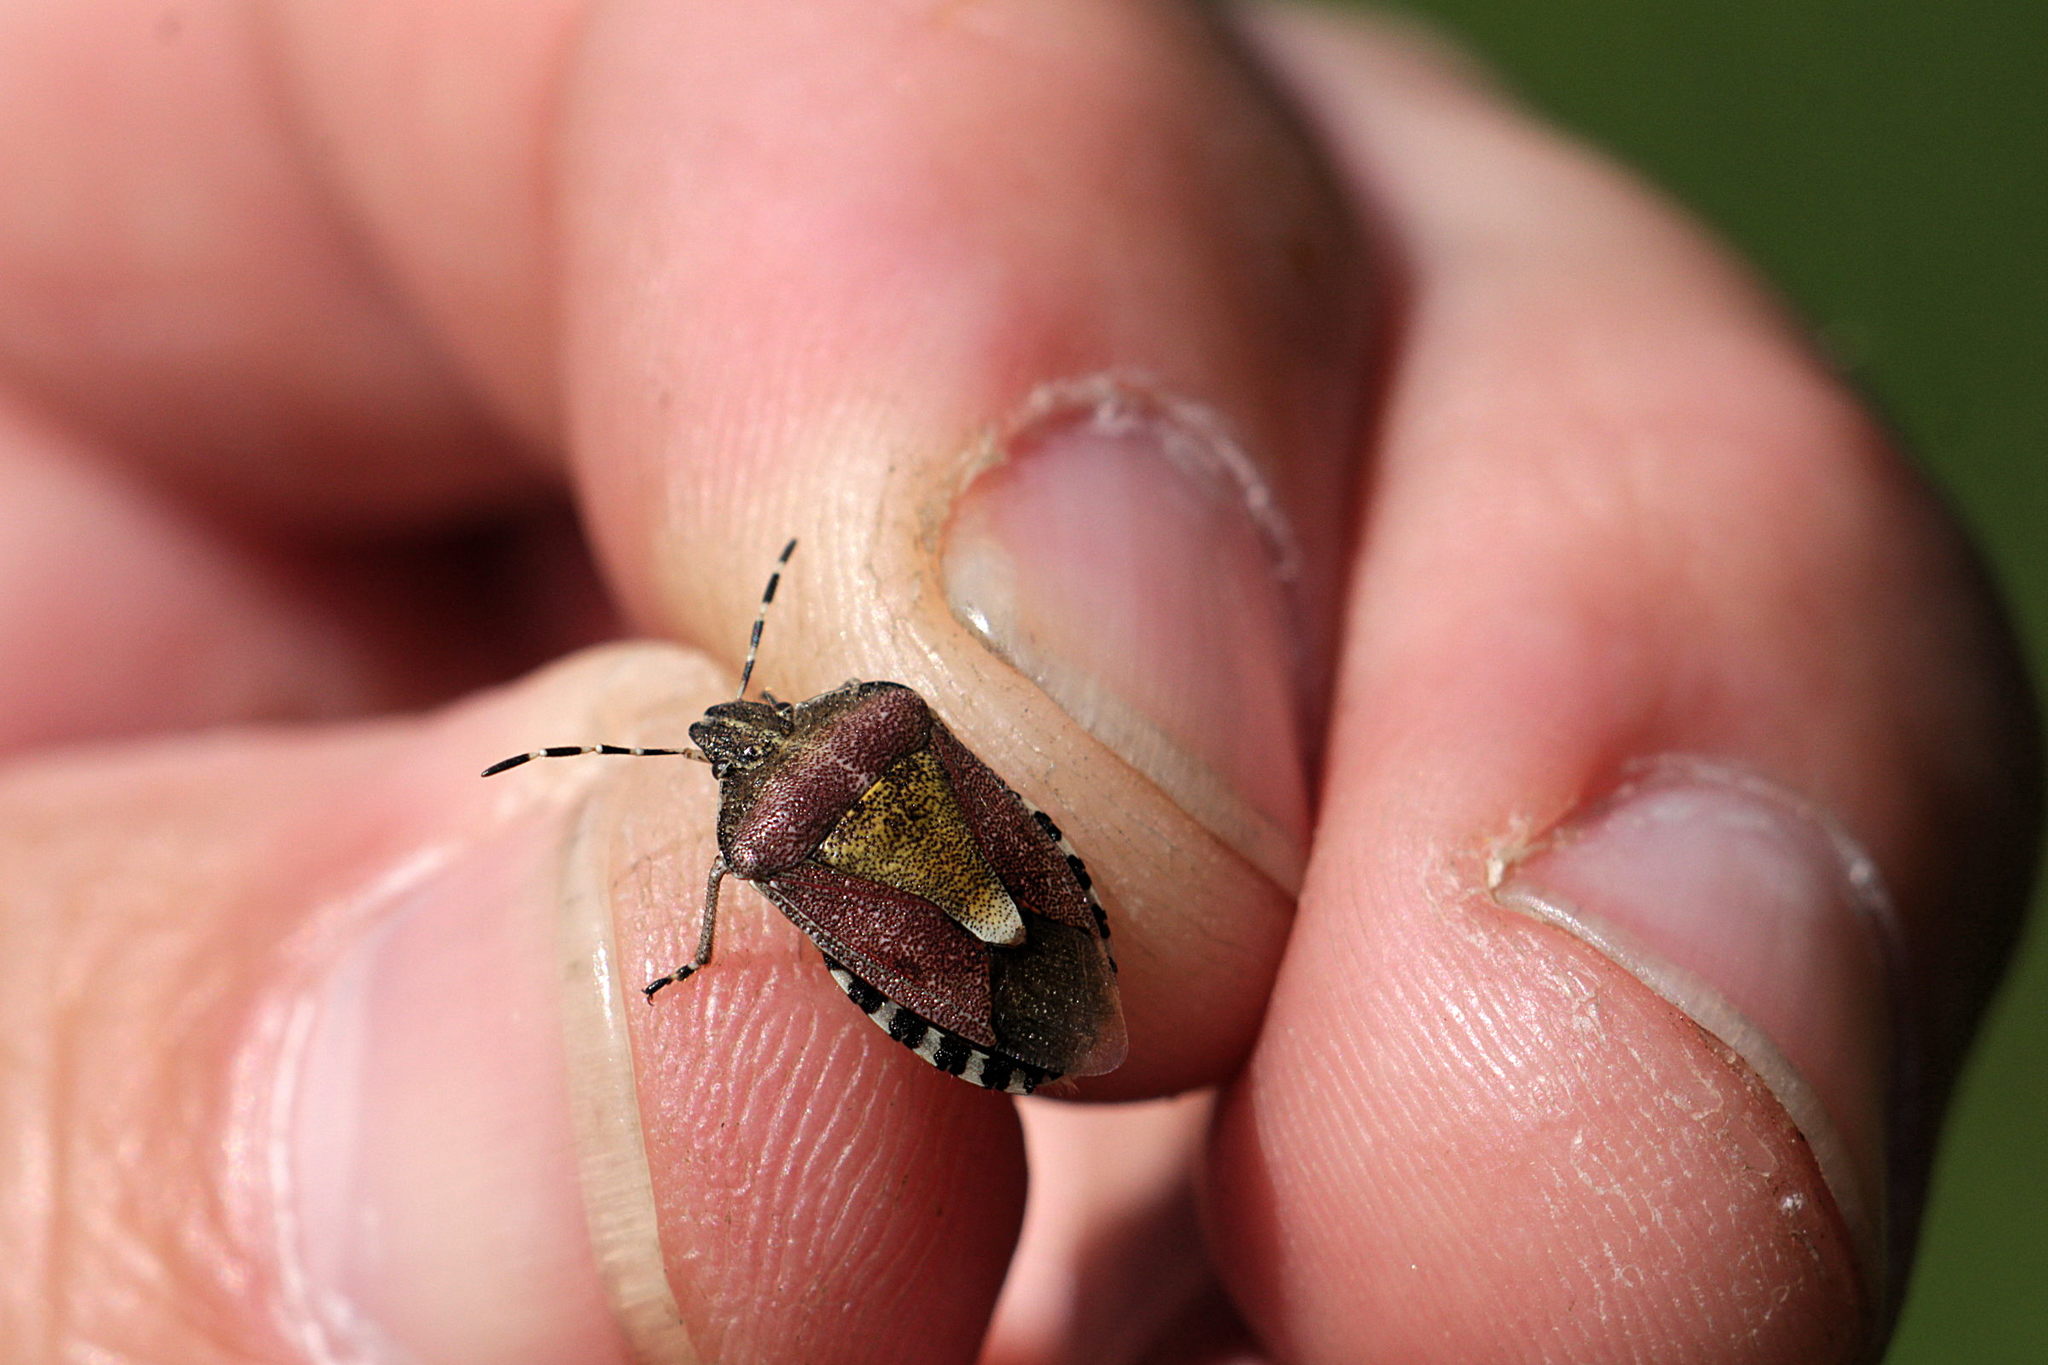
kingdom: Animalia
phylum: Arthropoda
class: Insecta
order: Hemiptera
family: Pentatomidae
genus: Dolycoris
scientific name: Dolycoris baccarum
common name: Sloe bug
